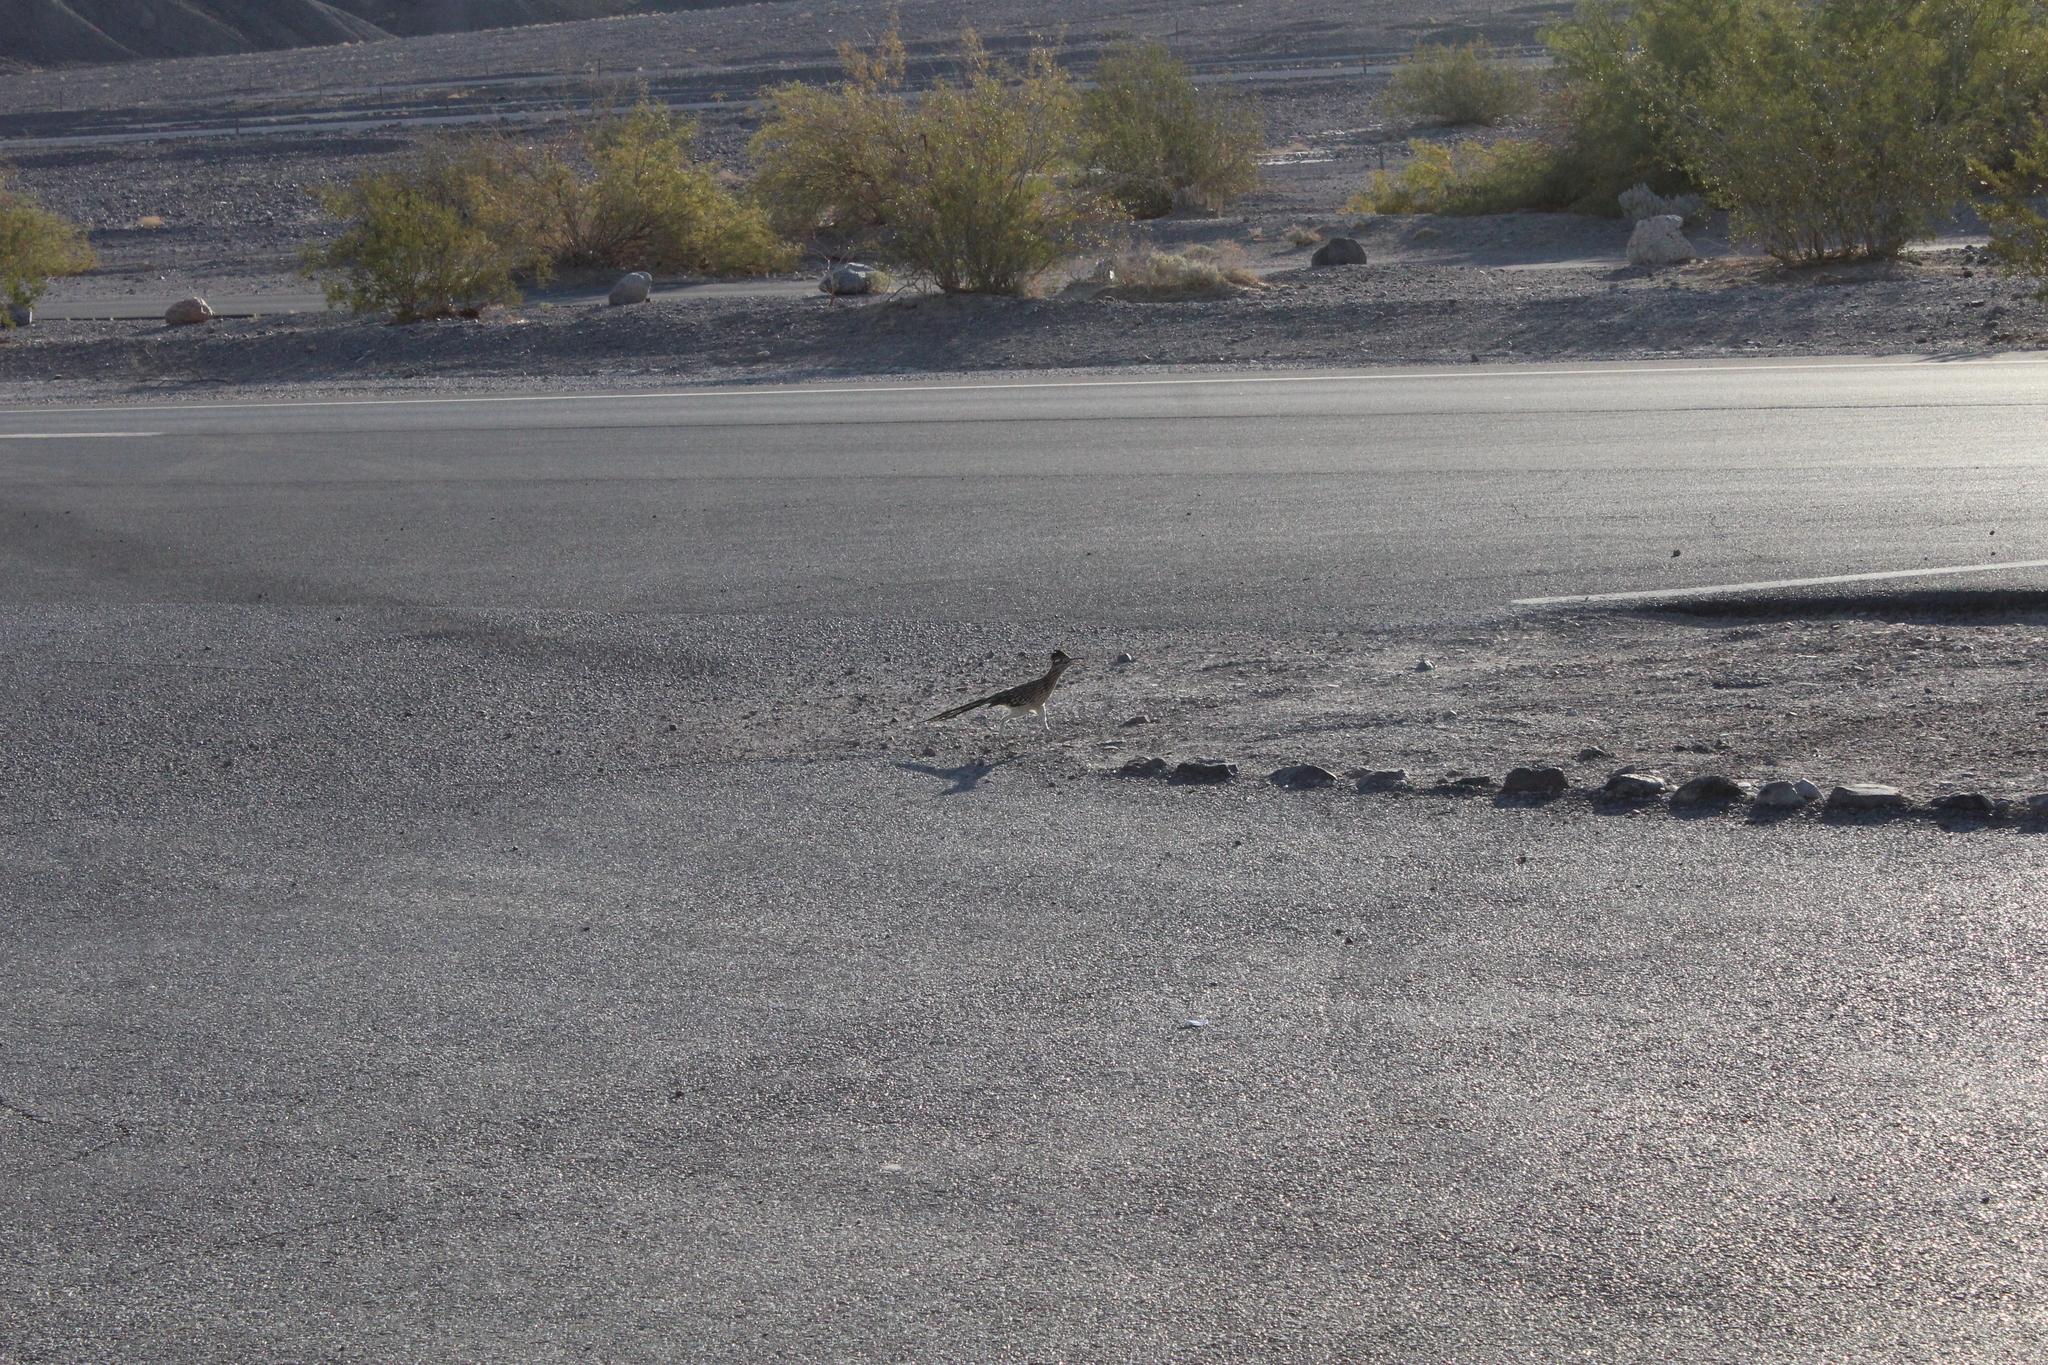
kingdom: Animalia
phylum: Chordata
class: Aves
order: Cuculiformes
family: Cuculidae
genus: Geococcyx
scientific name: Geococcyx californianus
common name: Greater roadrunner
